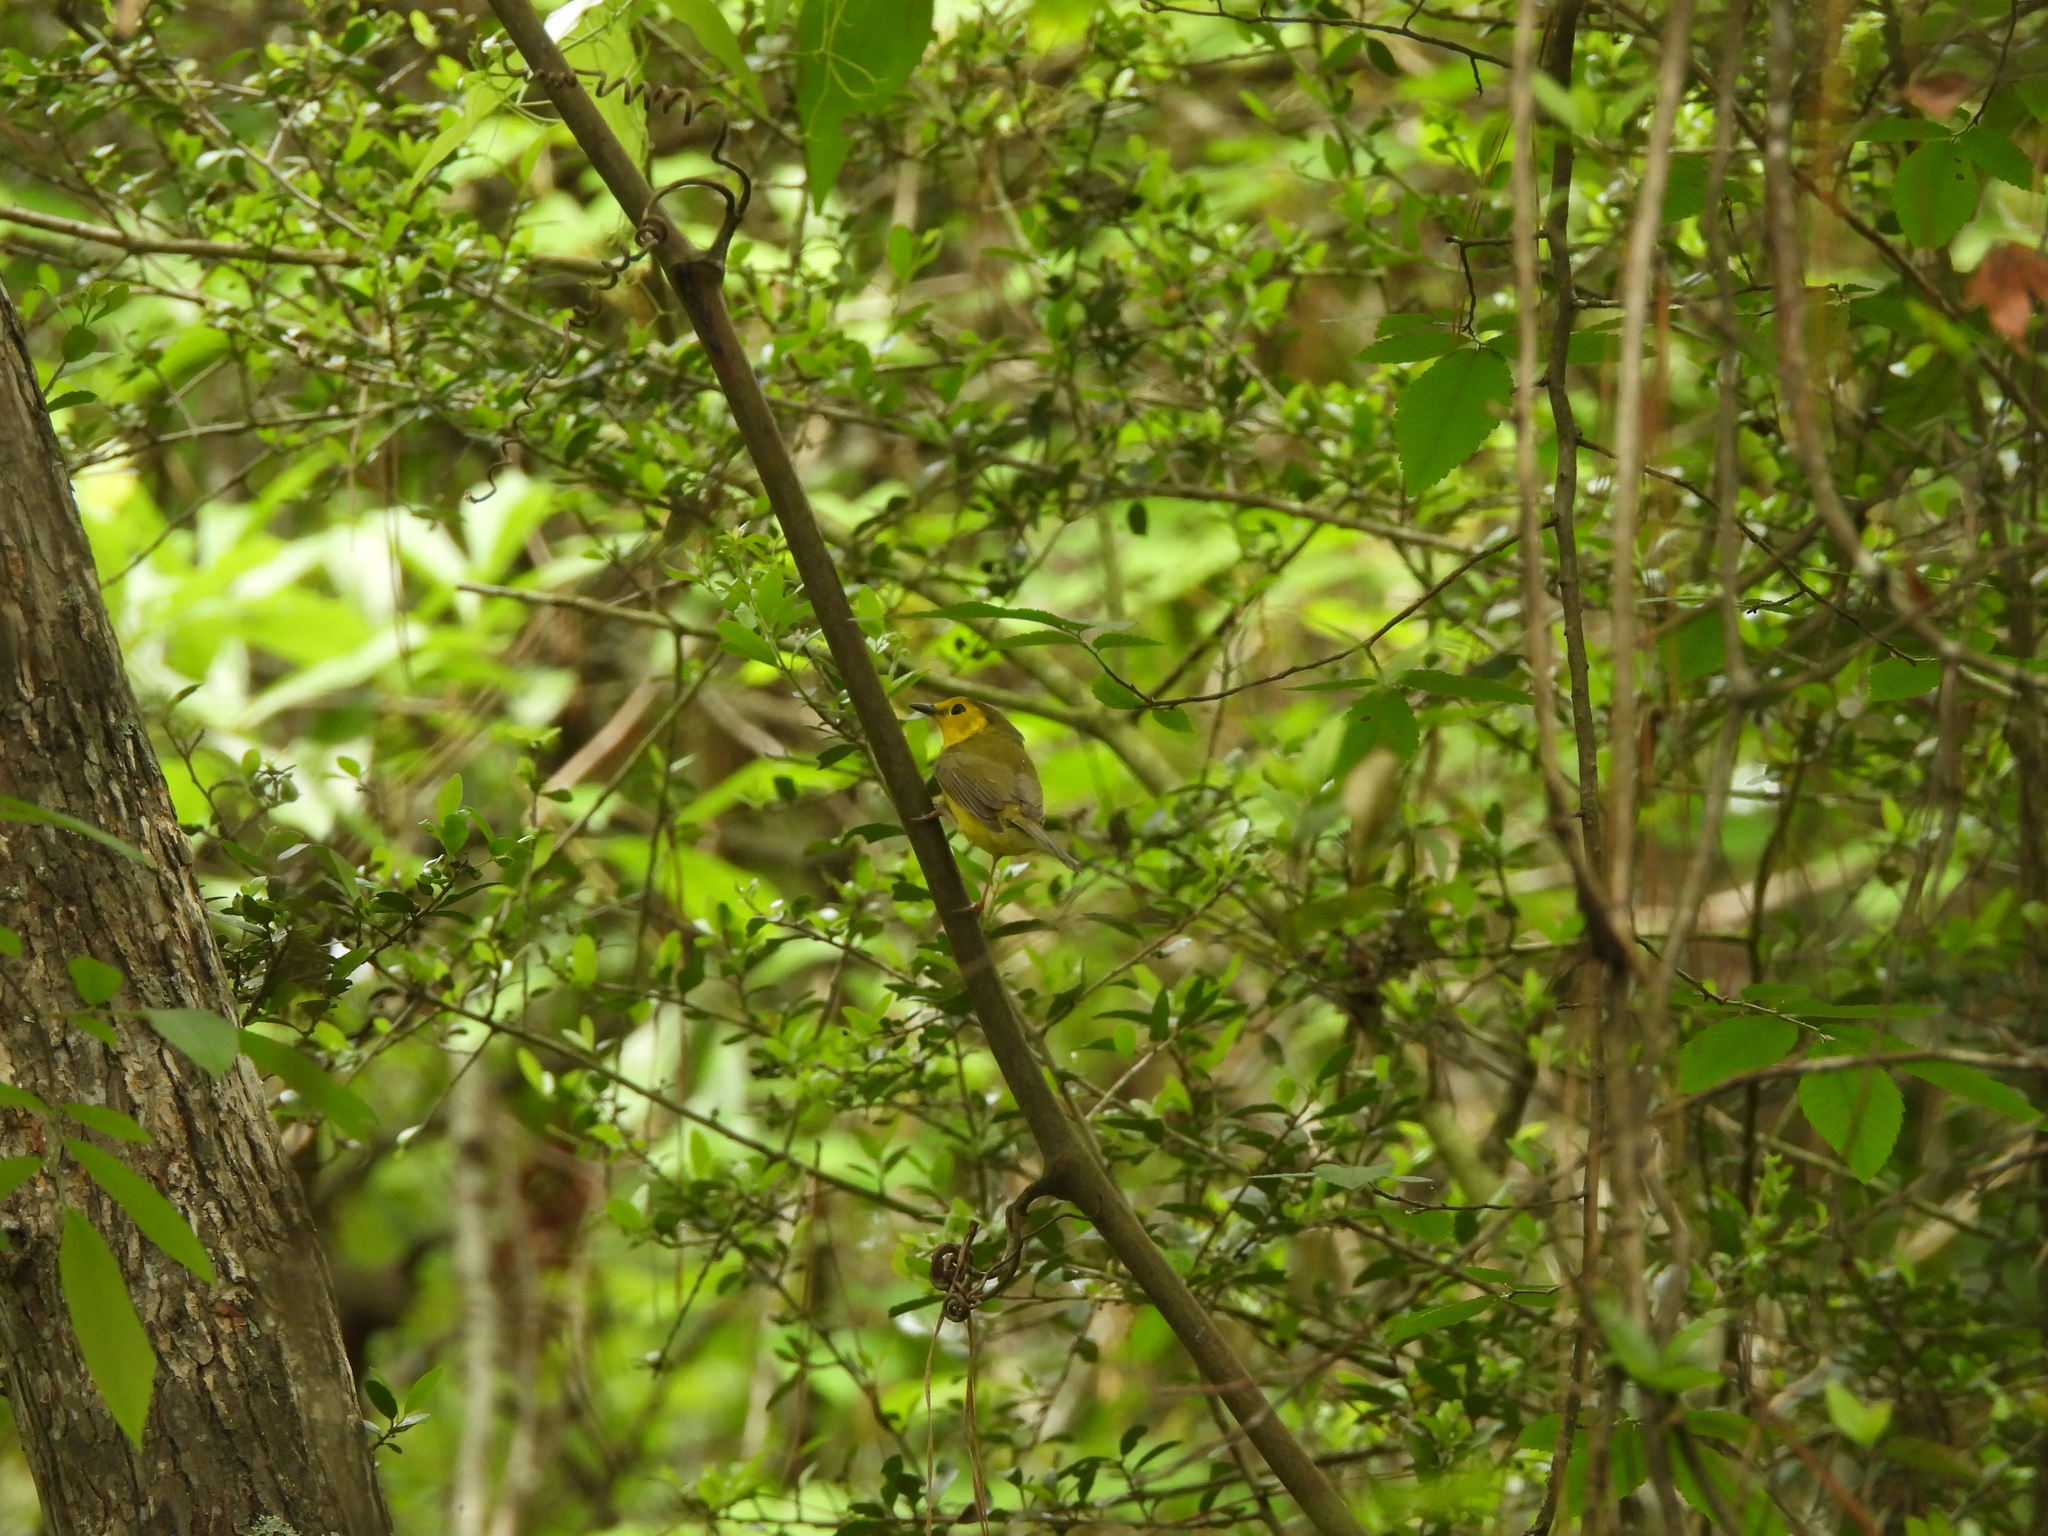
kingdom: Animalia
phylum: Chordata
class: Aves
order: Passeriformes
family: Parulidae
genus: Setophaga
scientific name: Setophaga citrina
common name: Hooded warbler
